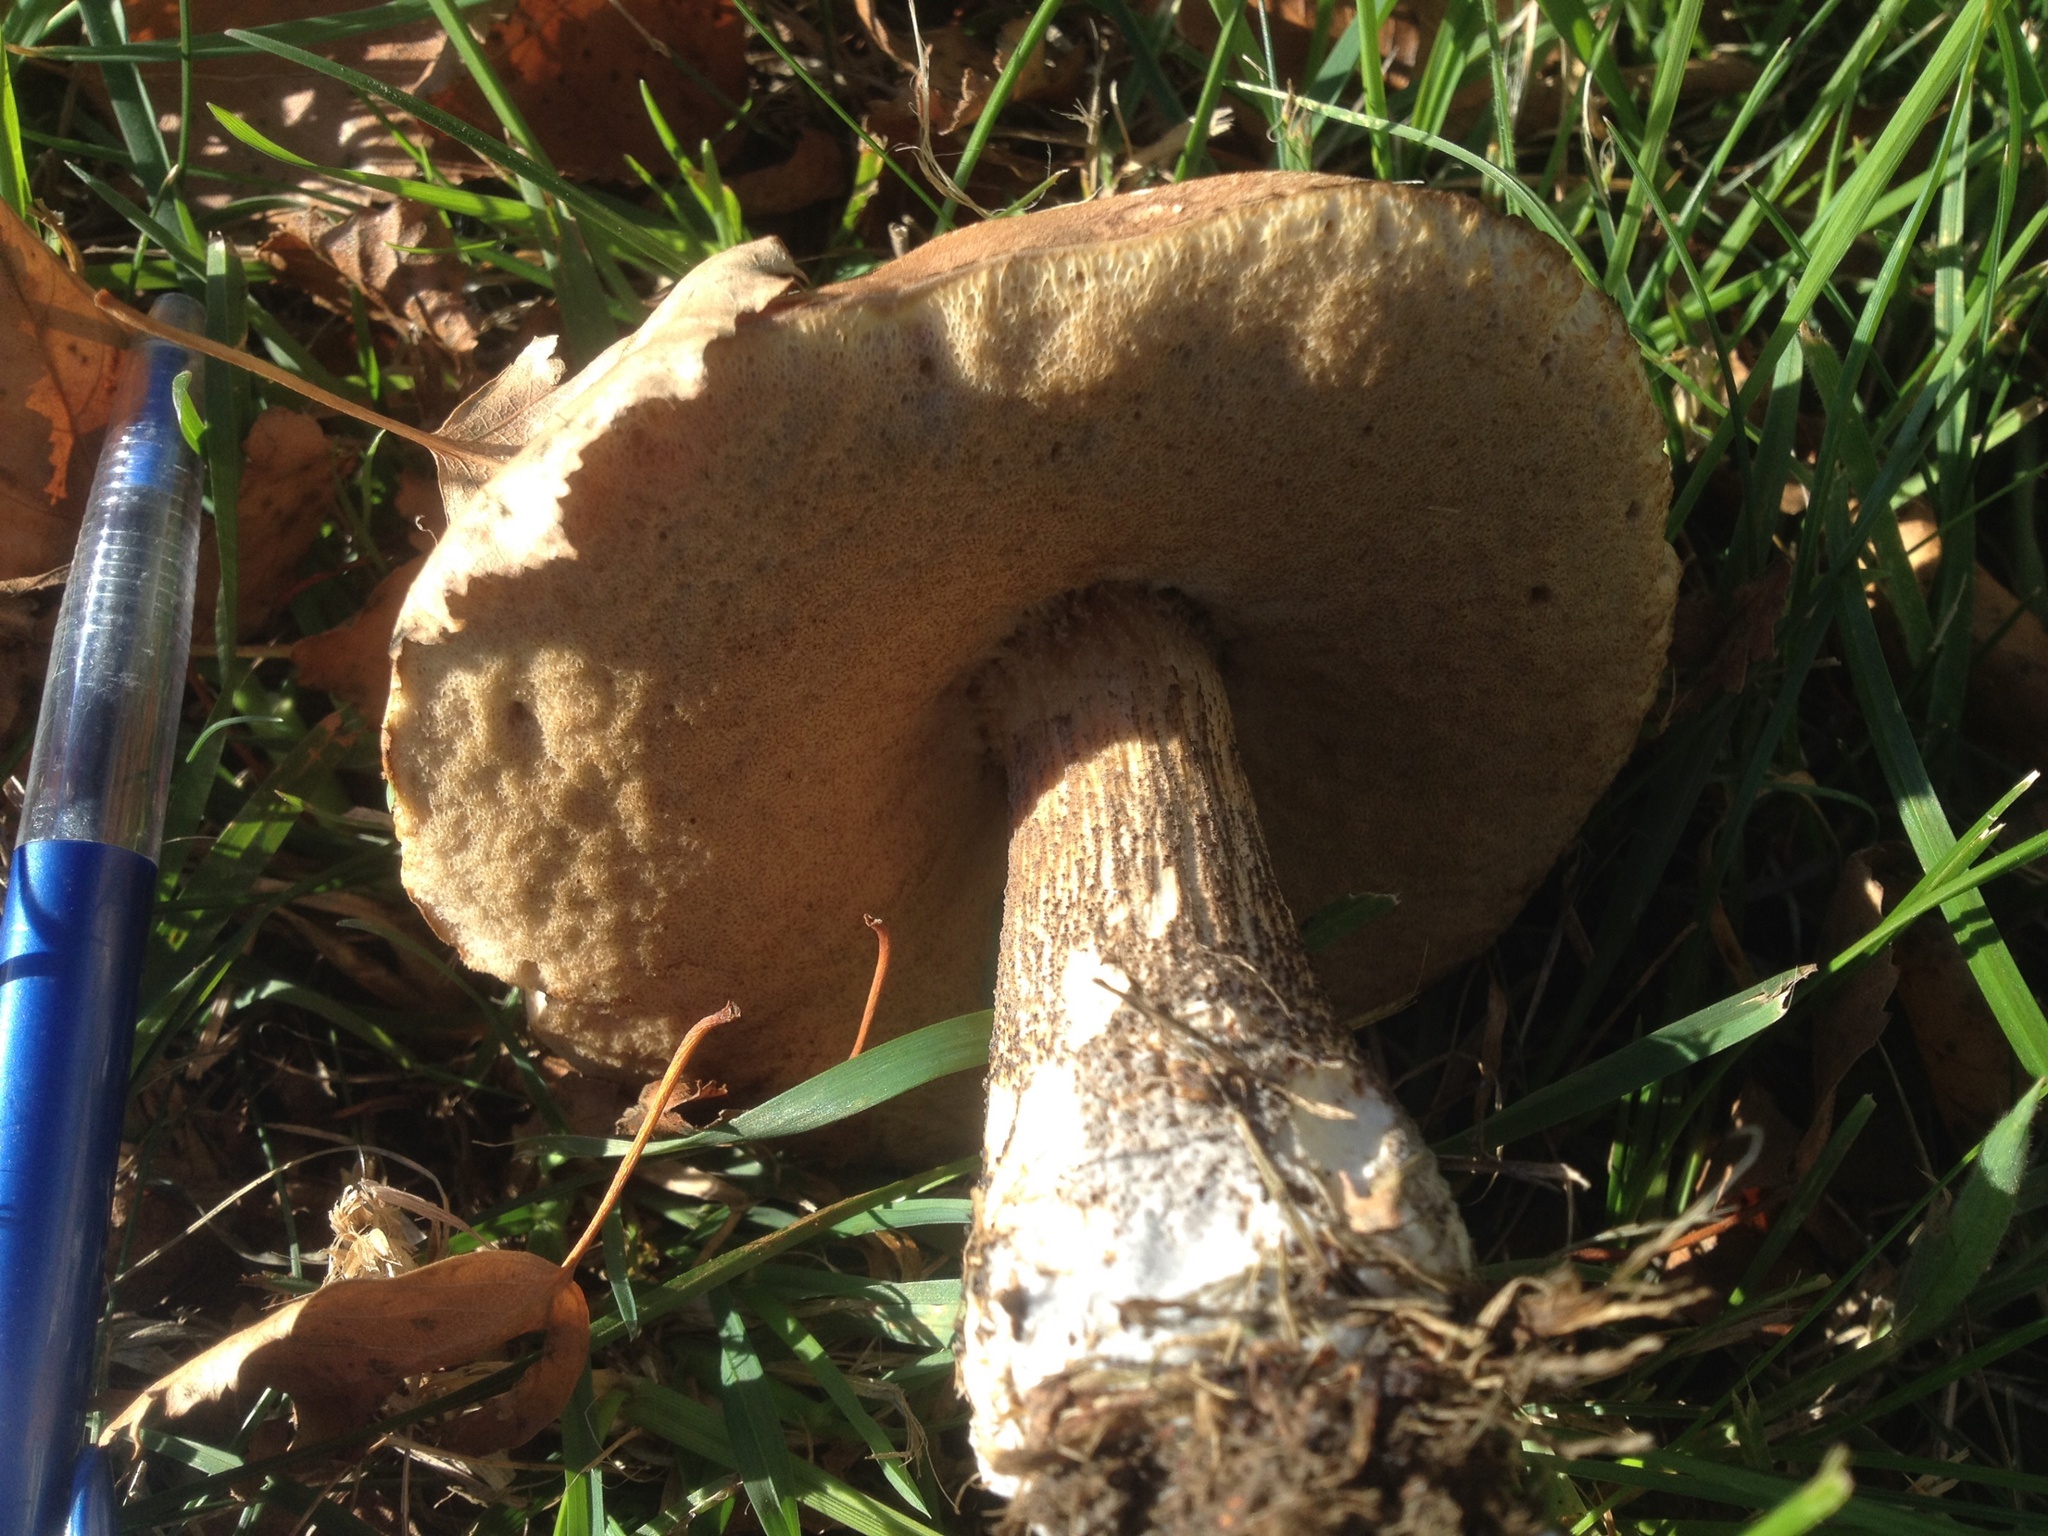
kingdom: Fungi
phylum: Basidiomycota
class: Agaricomycetes
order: Boletales
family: Boletaceae
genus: Leccinum
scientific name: Leccinum scabrum
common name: Blushing bolete
